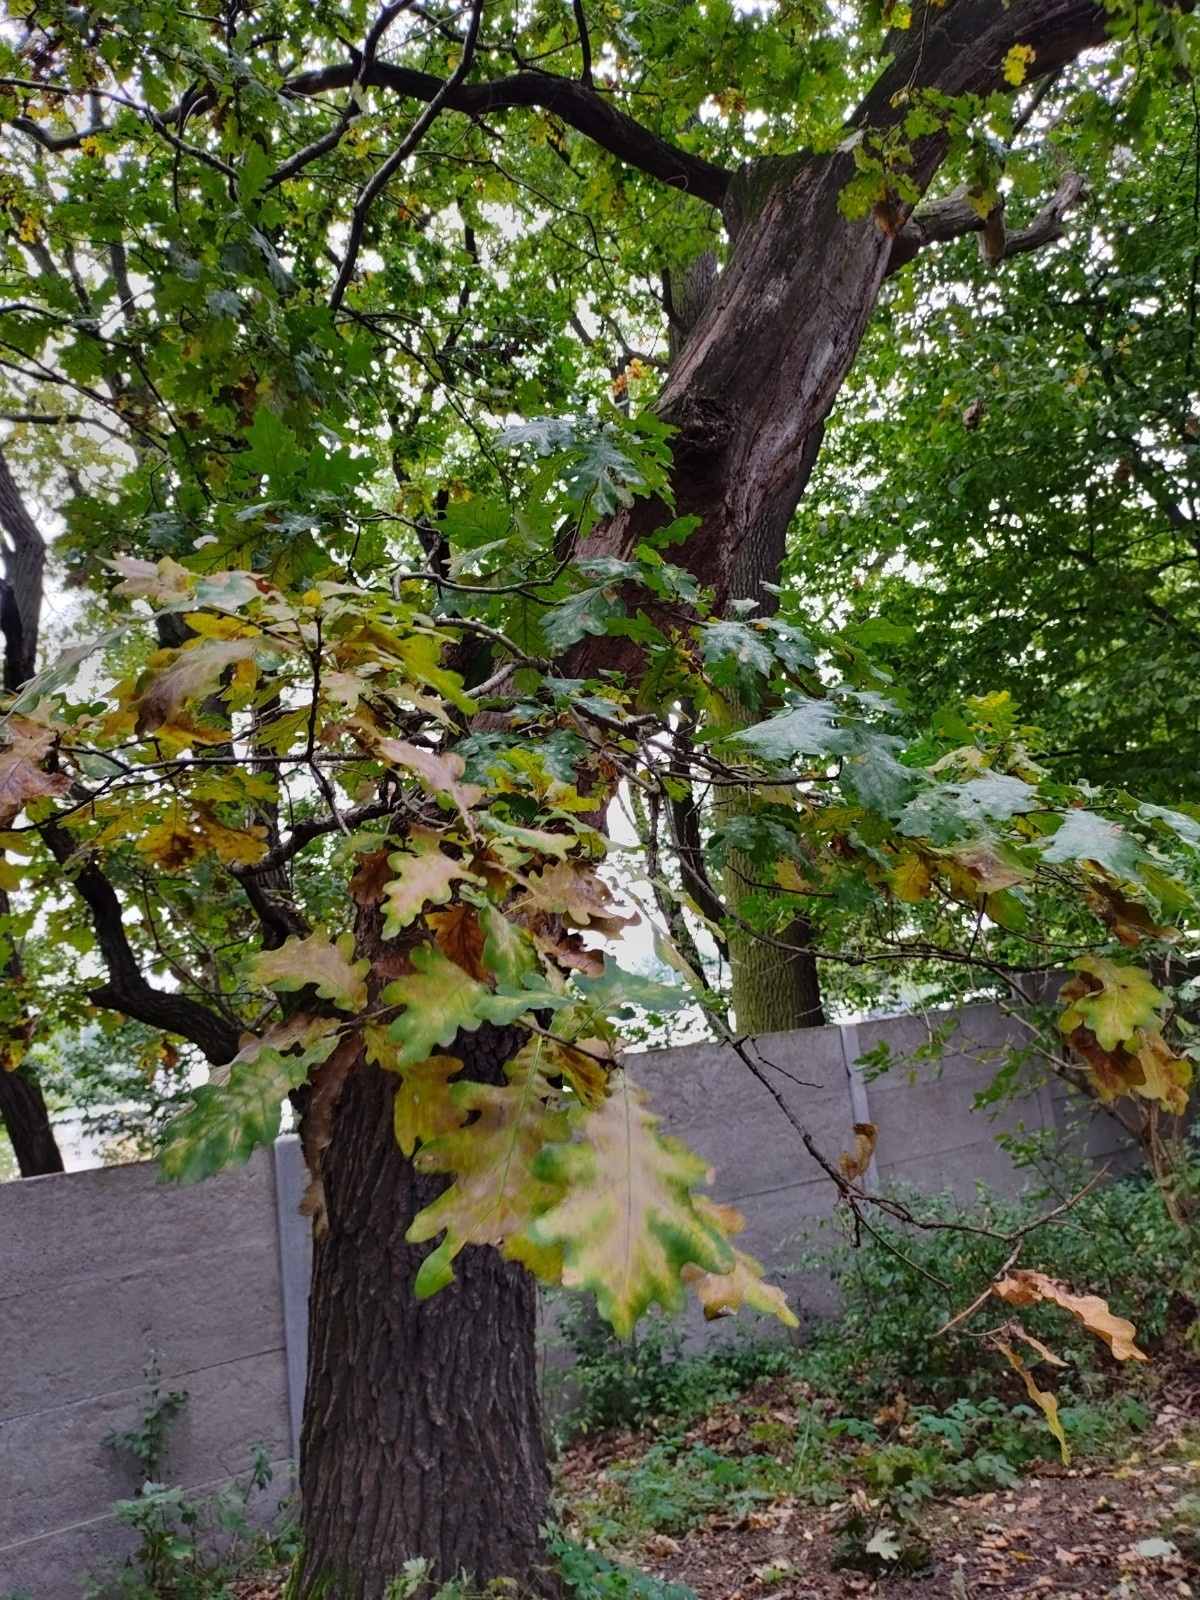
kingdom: Plantae
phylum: Tracheophyta
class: Magnoliopsida
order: Fagales
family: Fagaceae
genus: Quercus
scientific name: Quercus robur
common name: Pedunculate oak
